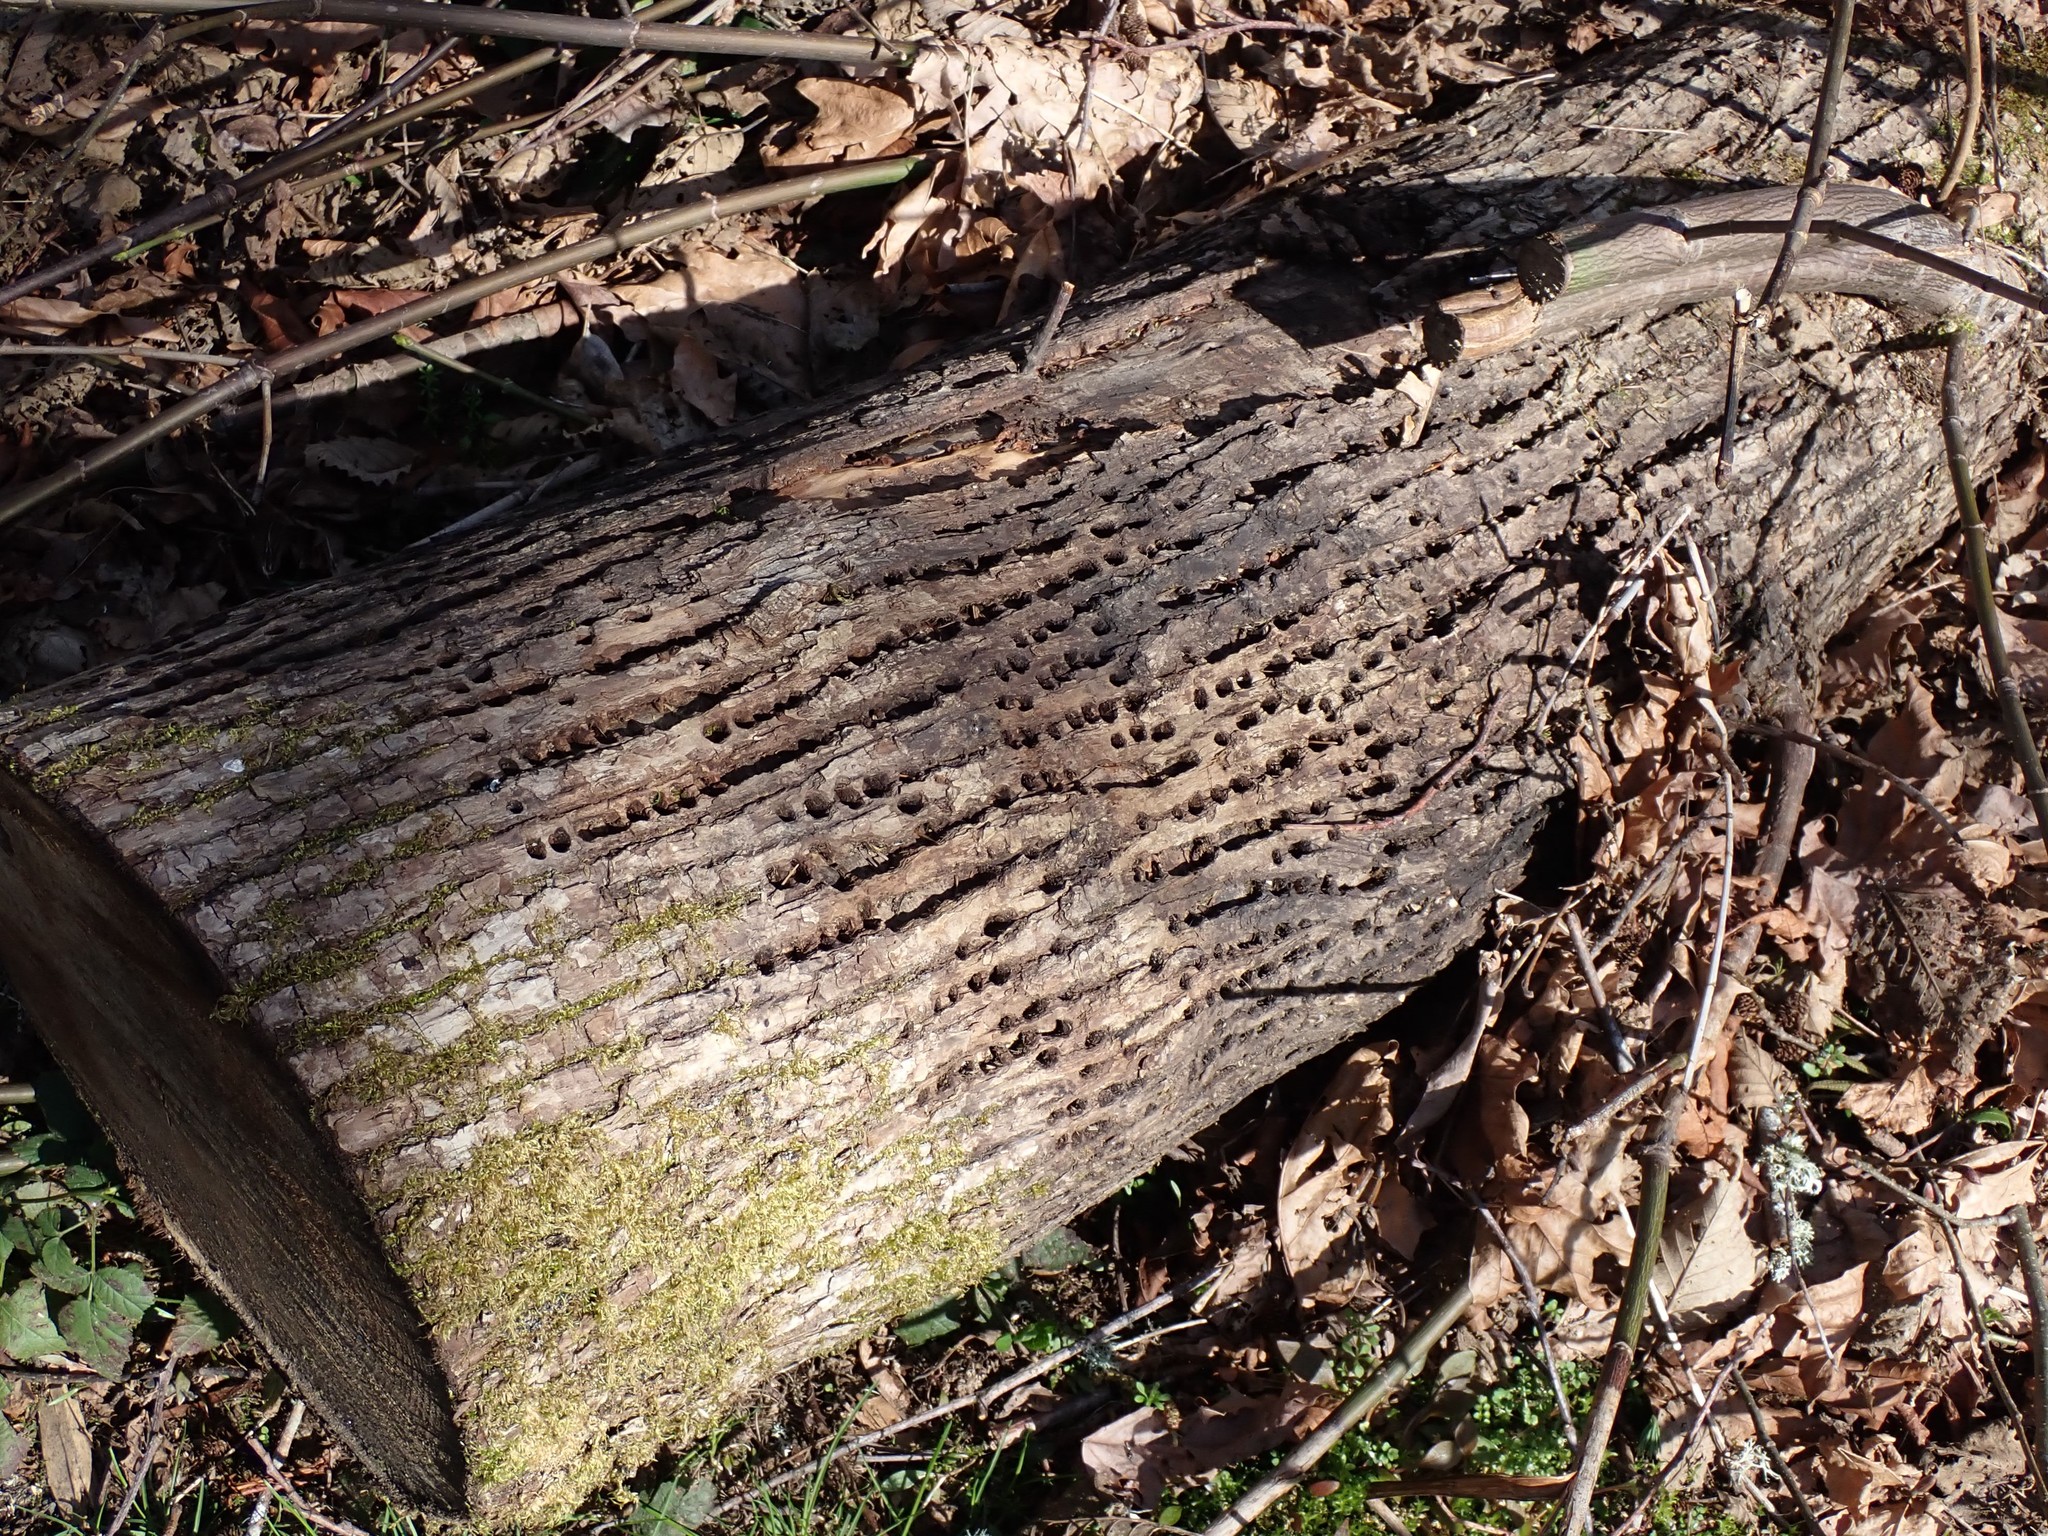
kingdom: Animalia
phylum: Chordata
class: Aves
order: Piciformes
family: Picidae
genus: Sphyrapicus
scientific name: Sphyrapicus
